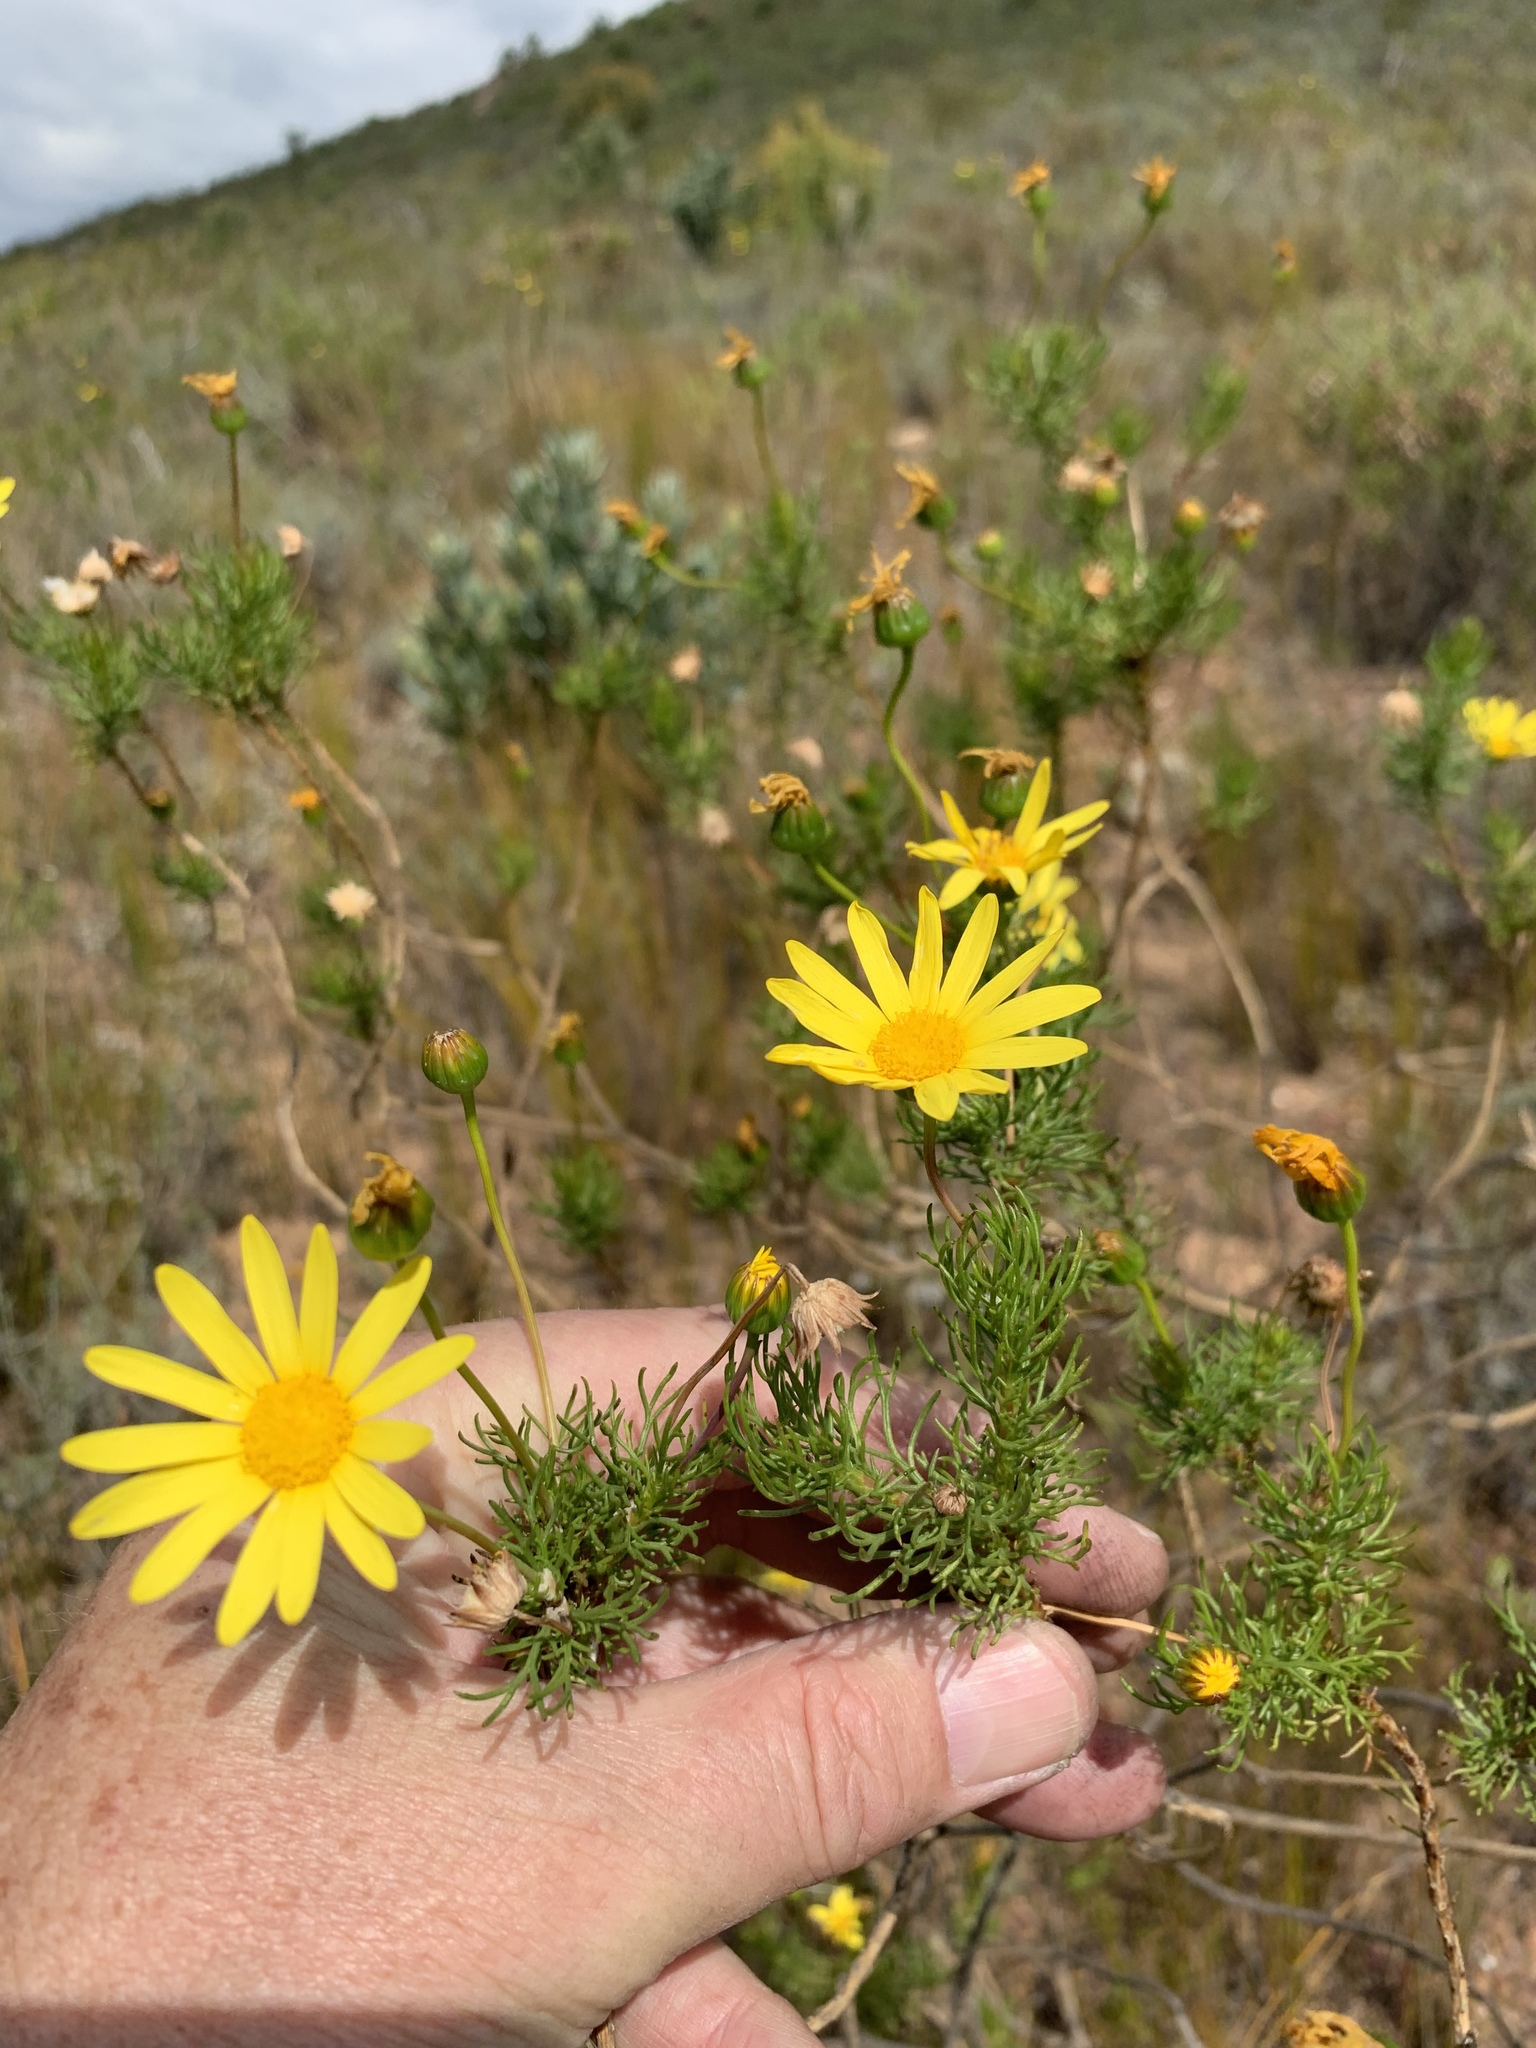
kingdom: Plantae
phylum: Tracheophyta
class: Magnoliopsida
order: Asterales
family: Asteraceae
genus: Euryops
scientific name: Euryops abrotanifolius
